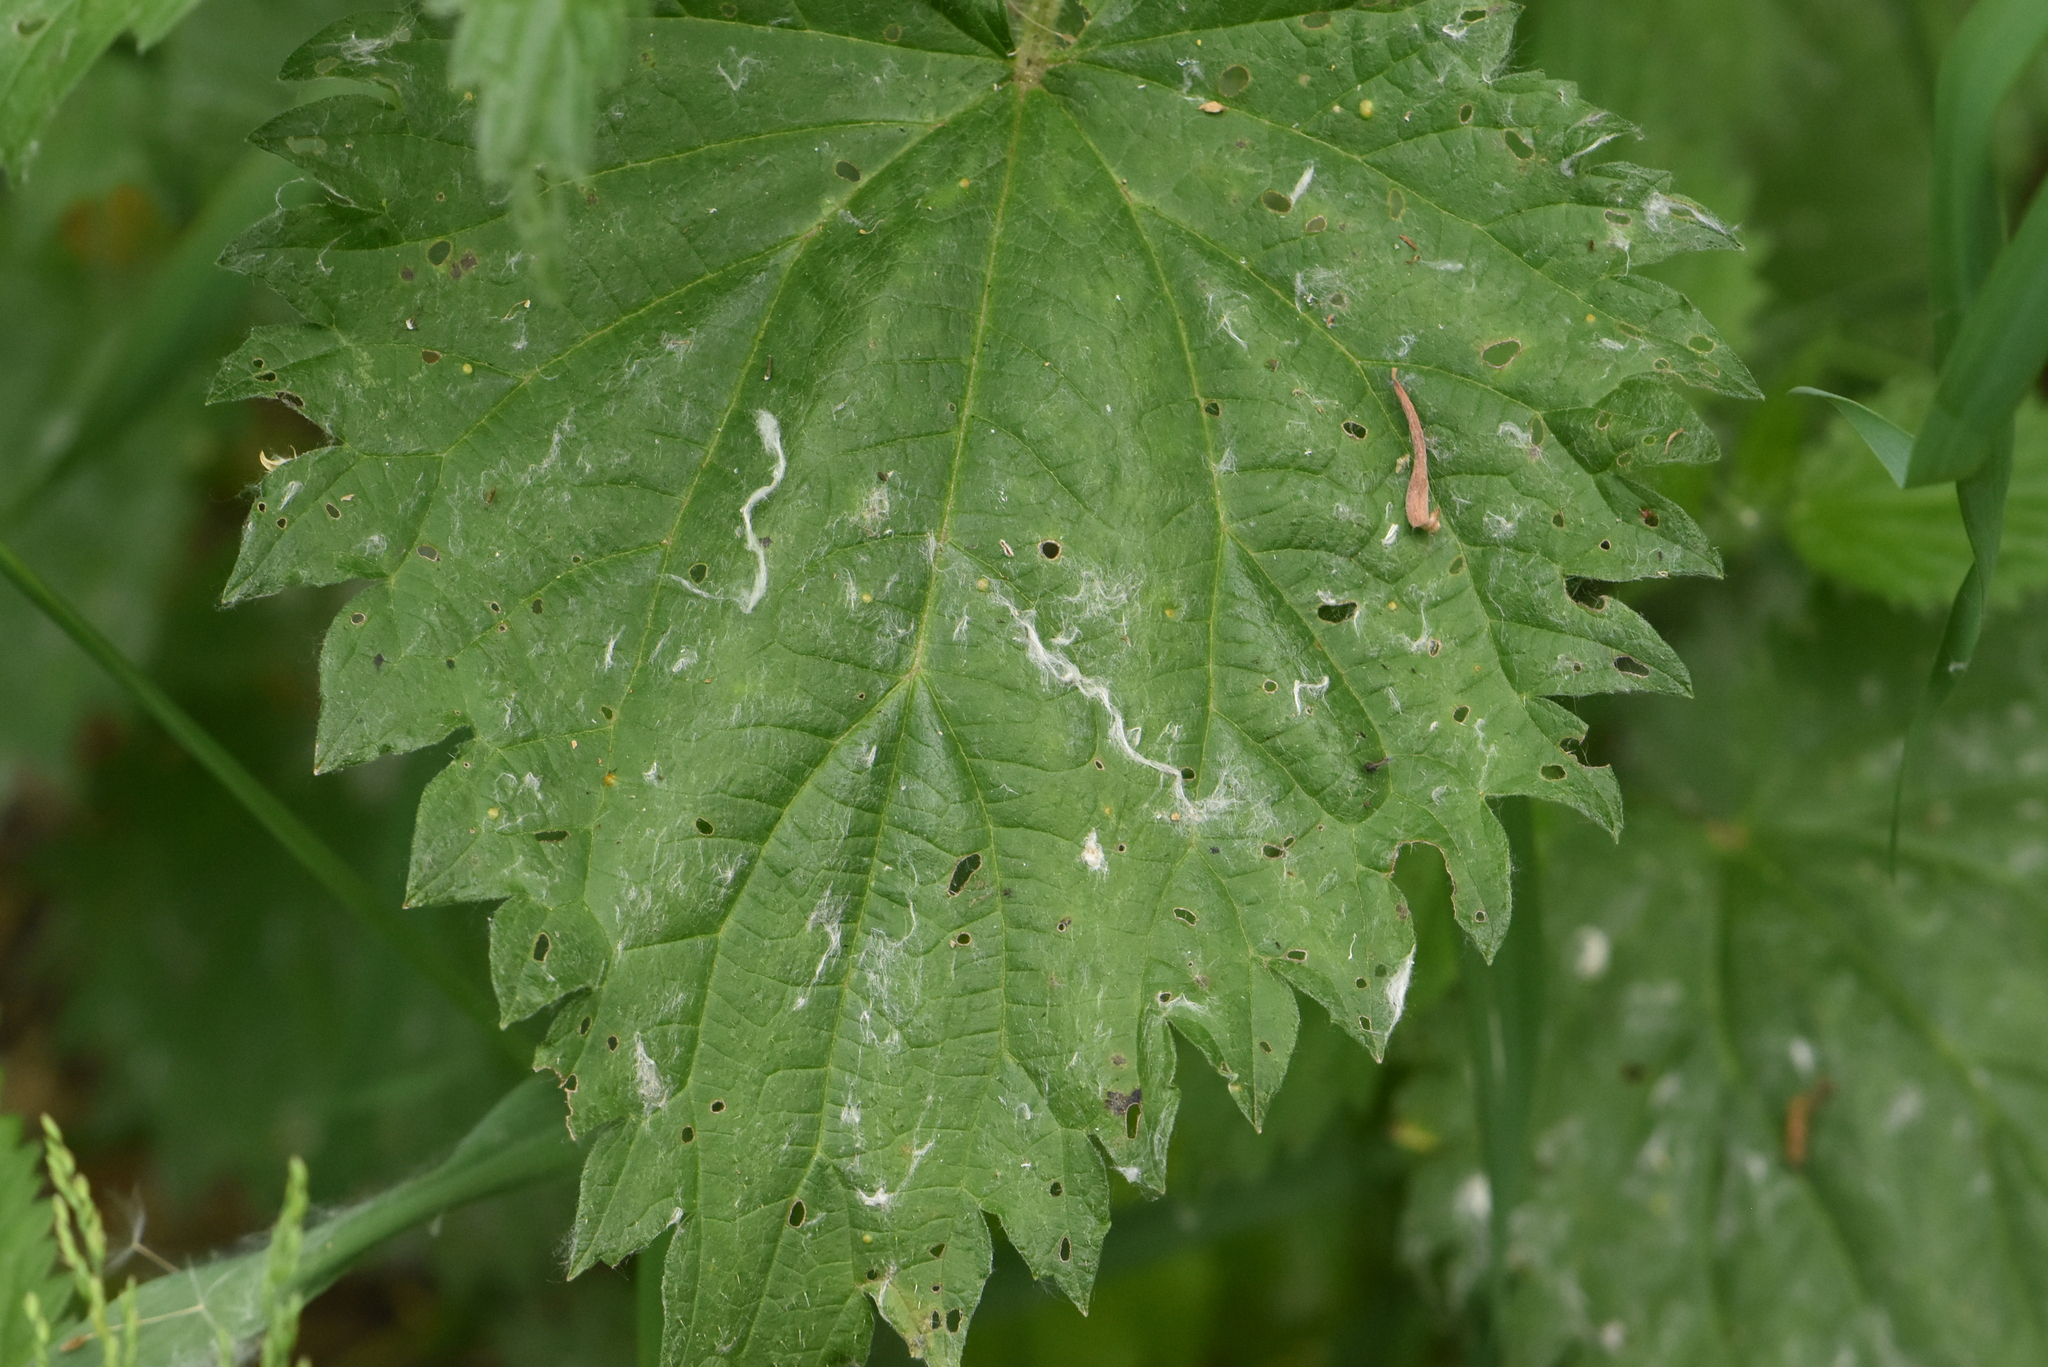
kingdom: Plantae
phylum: Tracheophyta
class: Magnoliopsida
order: Rosales
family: Urticaceae
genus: Urtica
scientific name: Urtica dioica
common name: Common nettle
